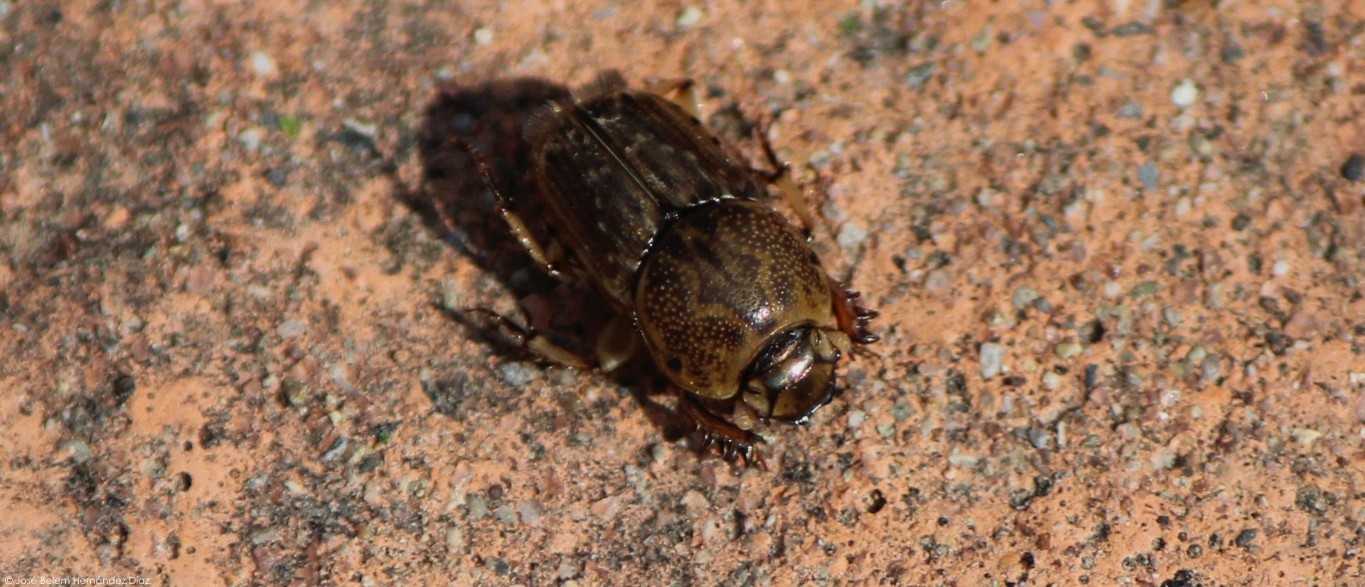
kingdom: Animalia
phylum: Arthropoda
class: Insecta
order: Coleoptera
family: Scarabaeidae
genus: Euoniticellus
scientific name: Euoniticellus intermedius
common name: Intermediate sandy dung beetle
